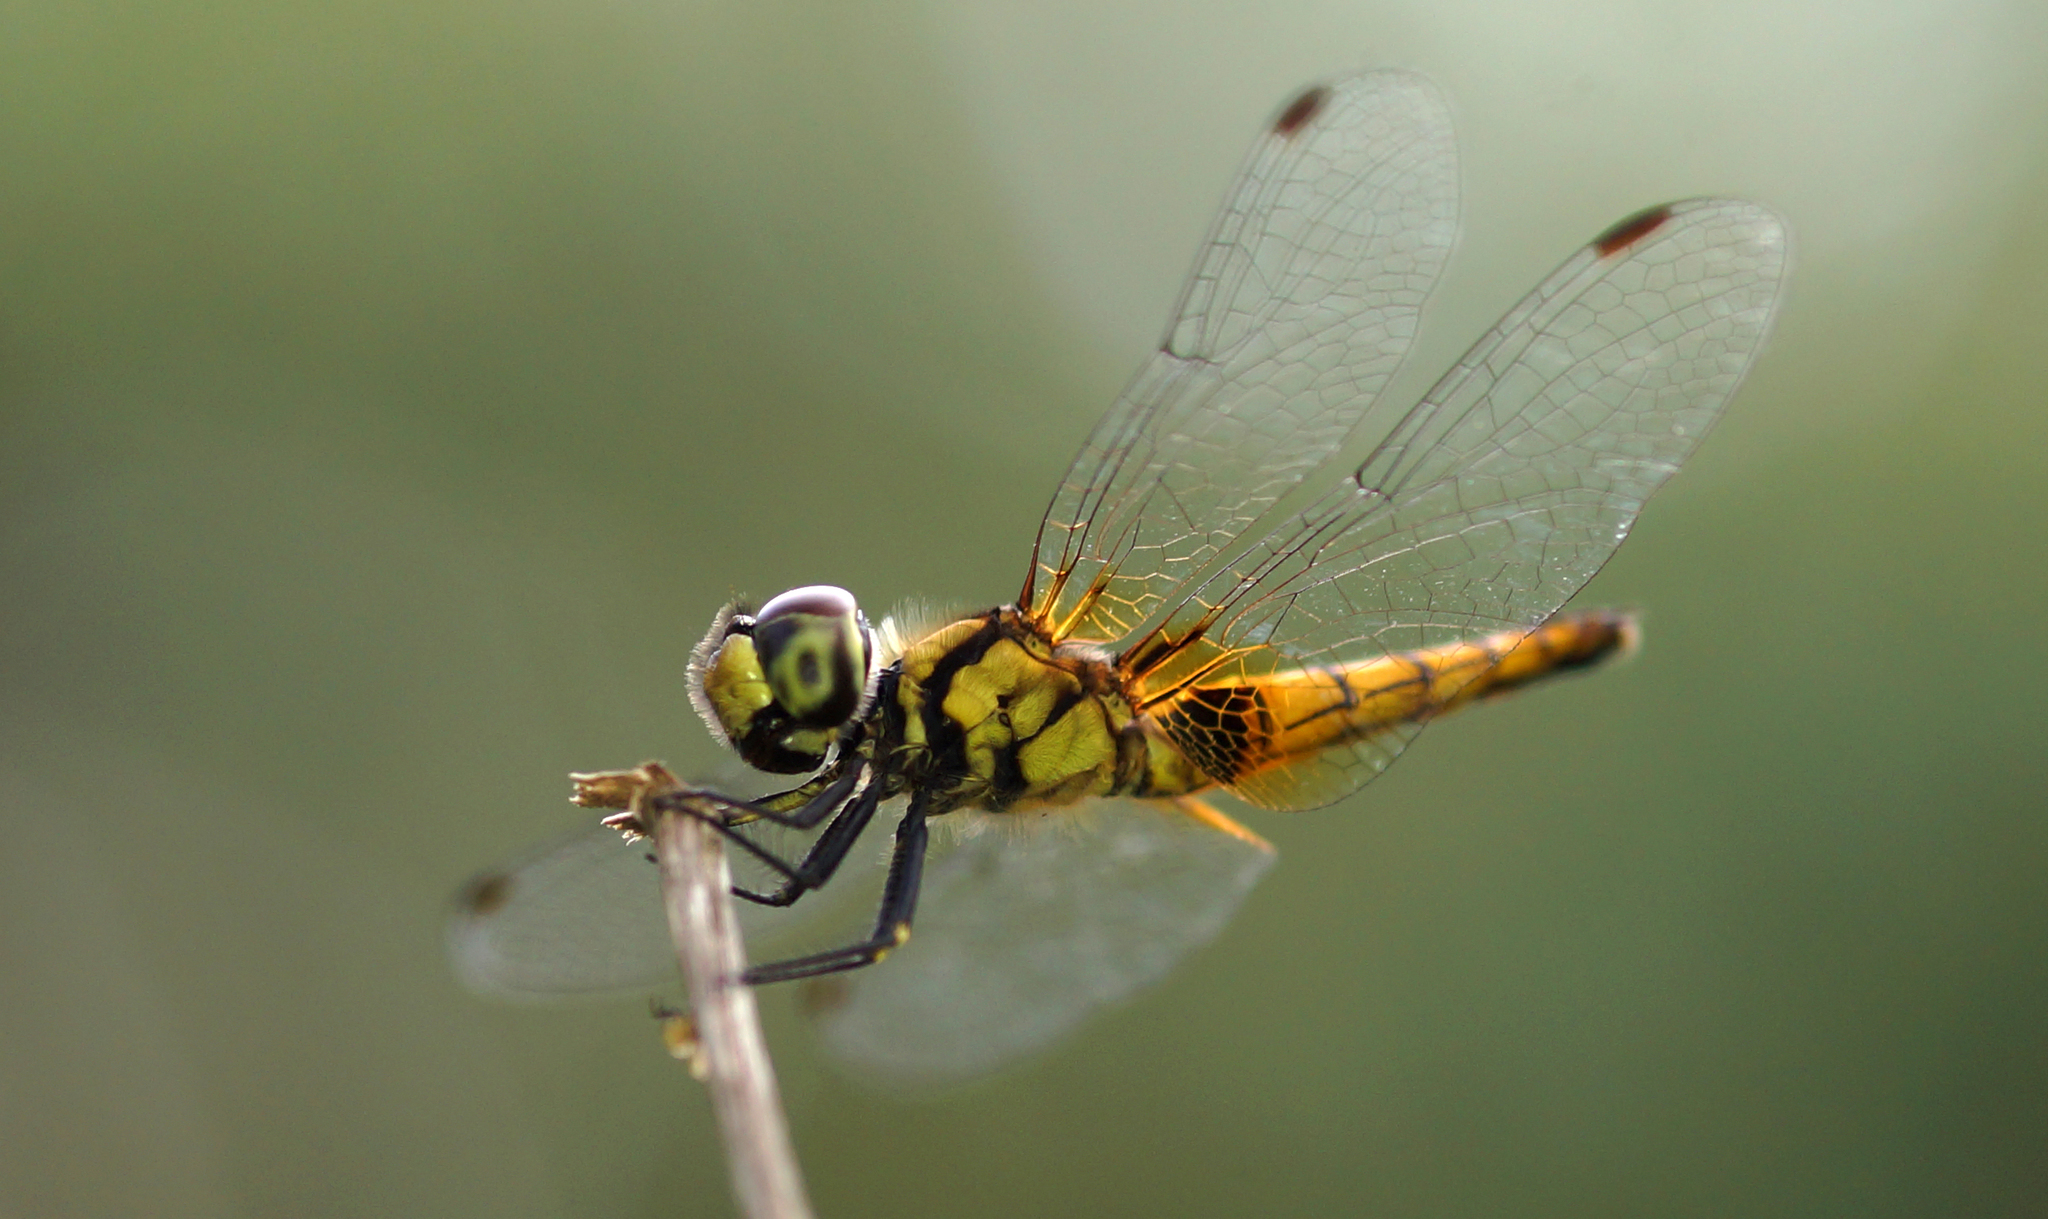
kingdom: Animalia
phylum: Arthropoda
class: Insecta
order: Odonata
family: Libellulidae
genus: Aethriamanta
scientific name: Aethriamanta brevipennis
